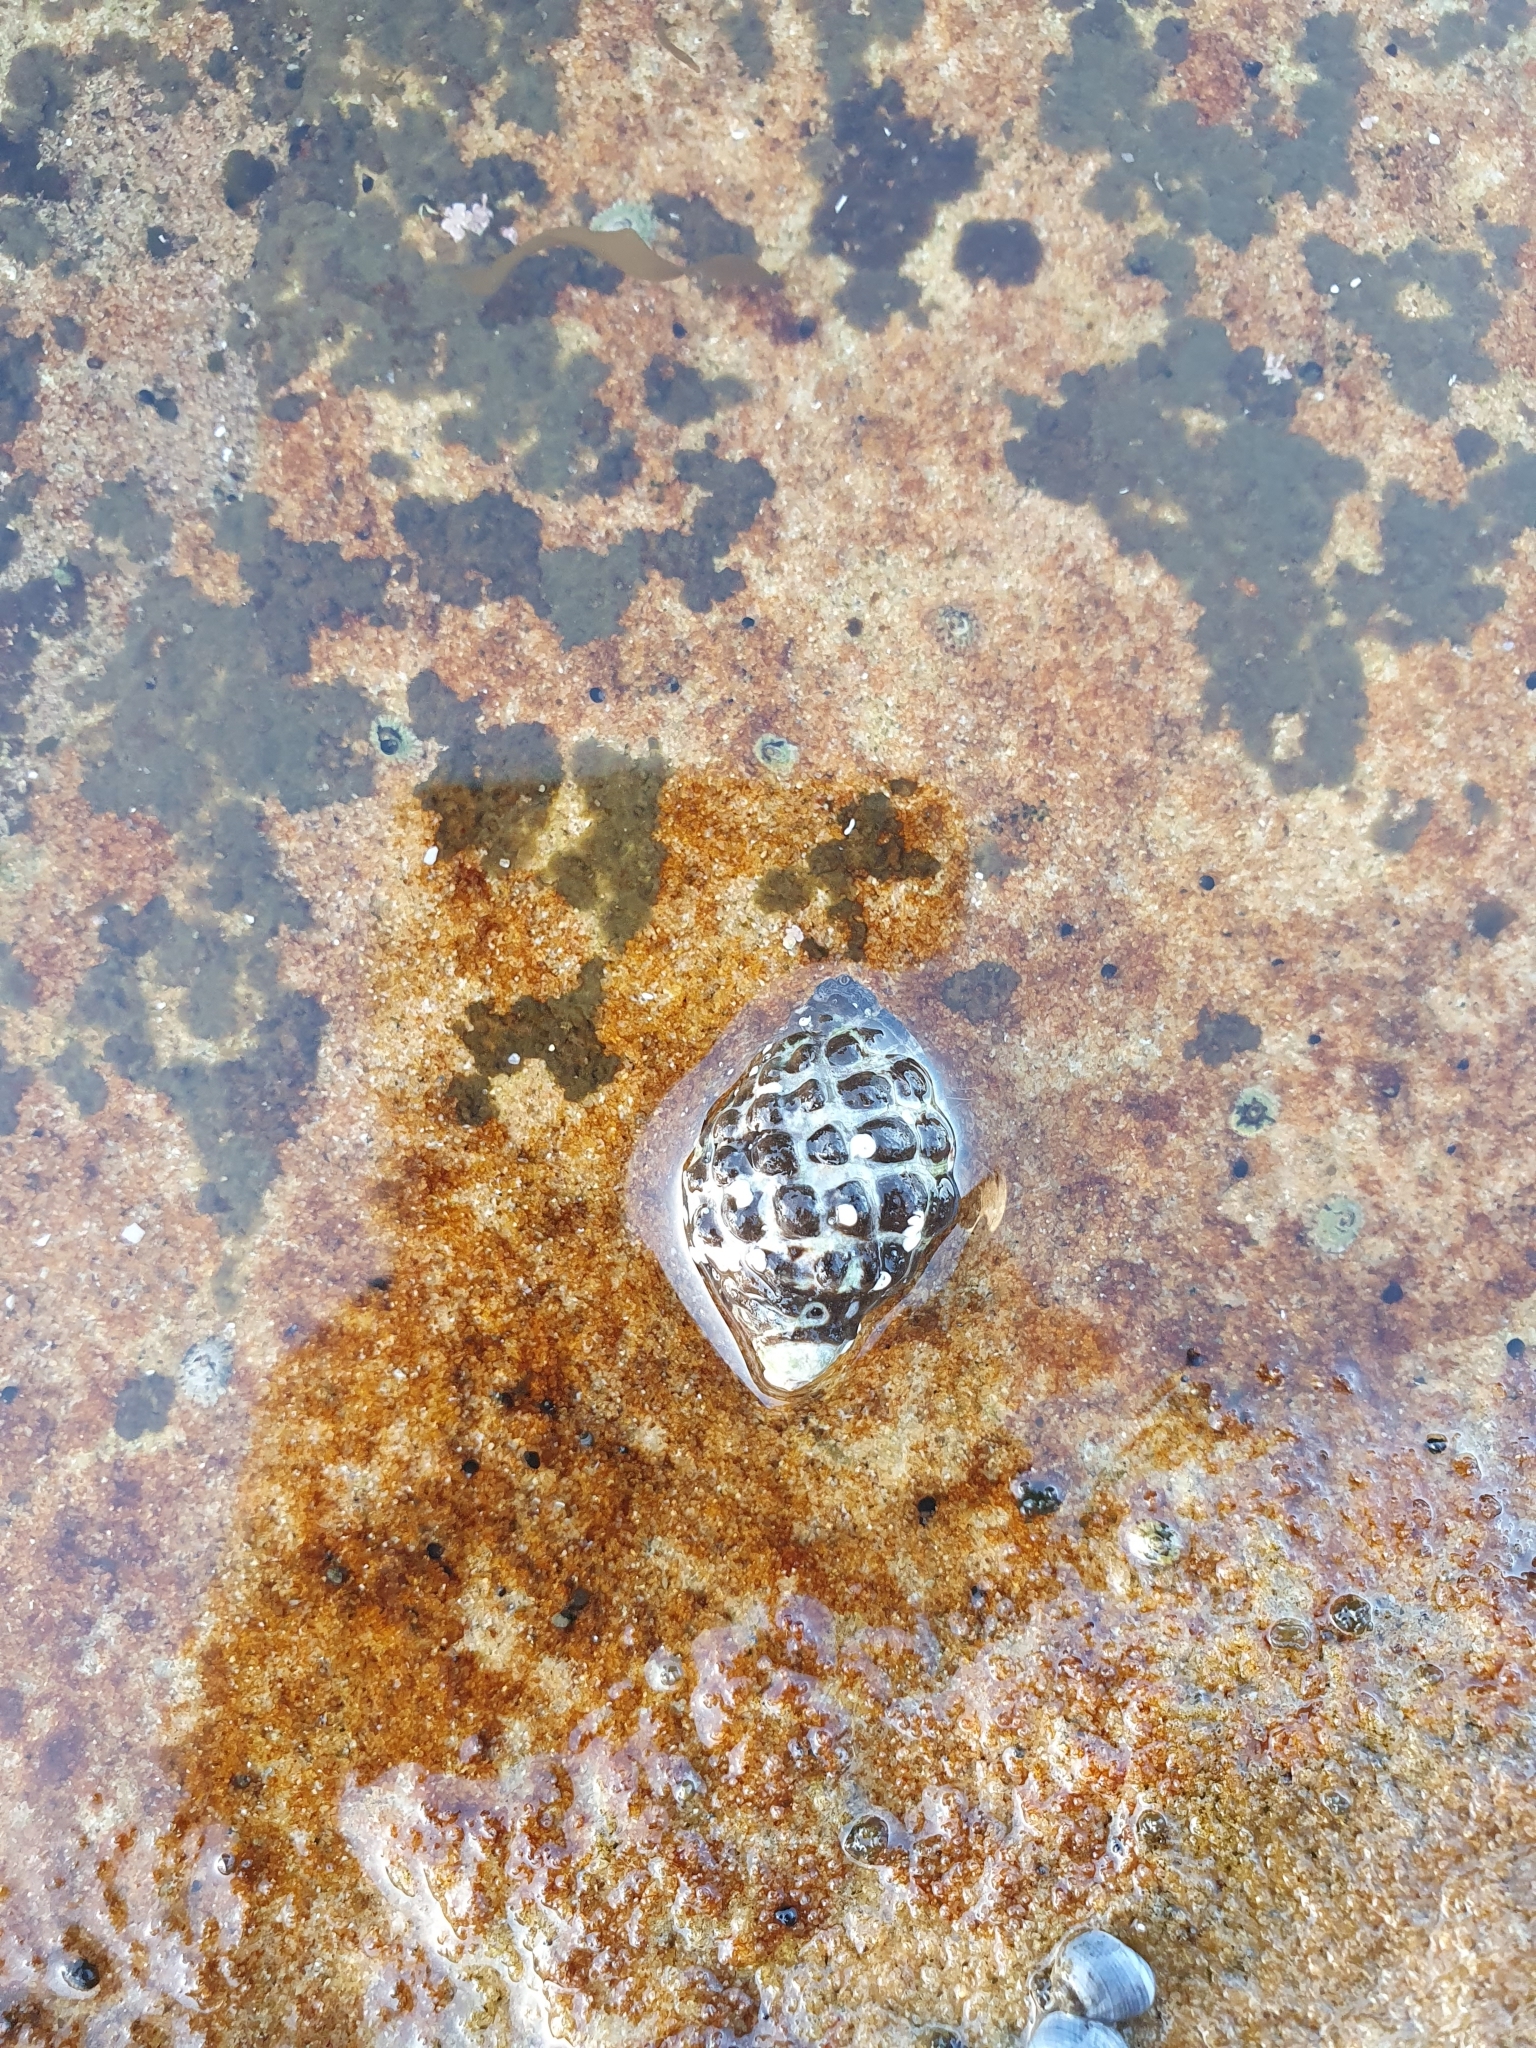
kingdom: Animalia
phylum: Mollusca
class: Gastropoda
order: Neogastropoda
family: Muricidae
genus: Tenguella
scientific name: Tenguella marginalba
